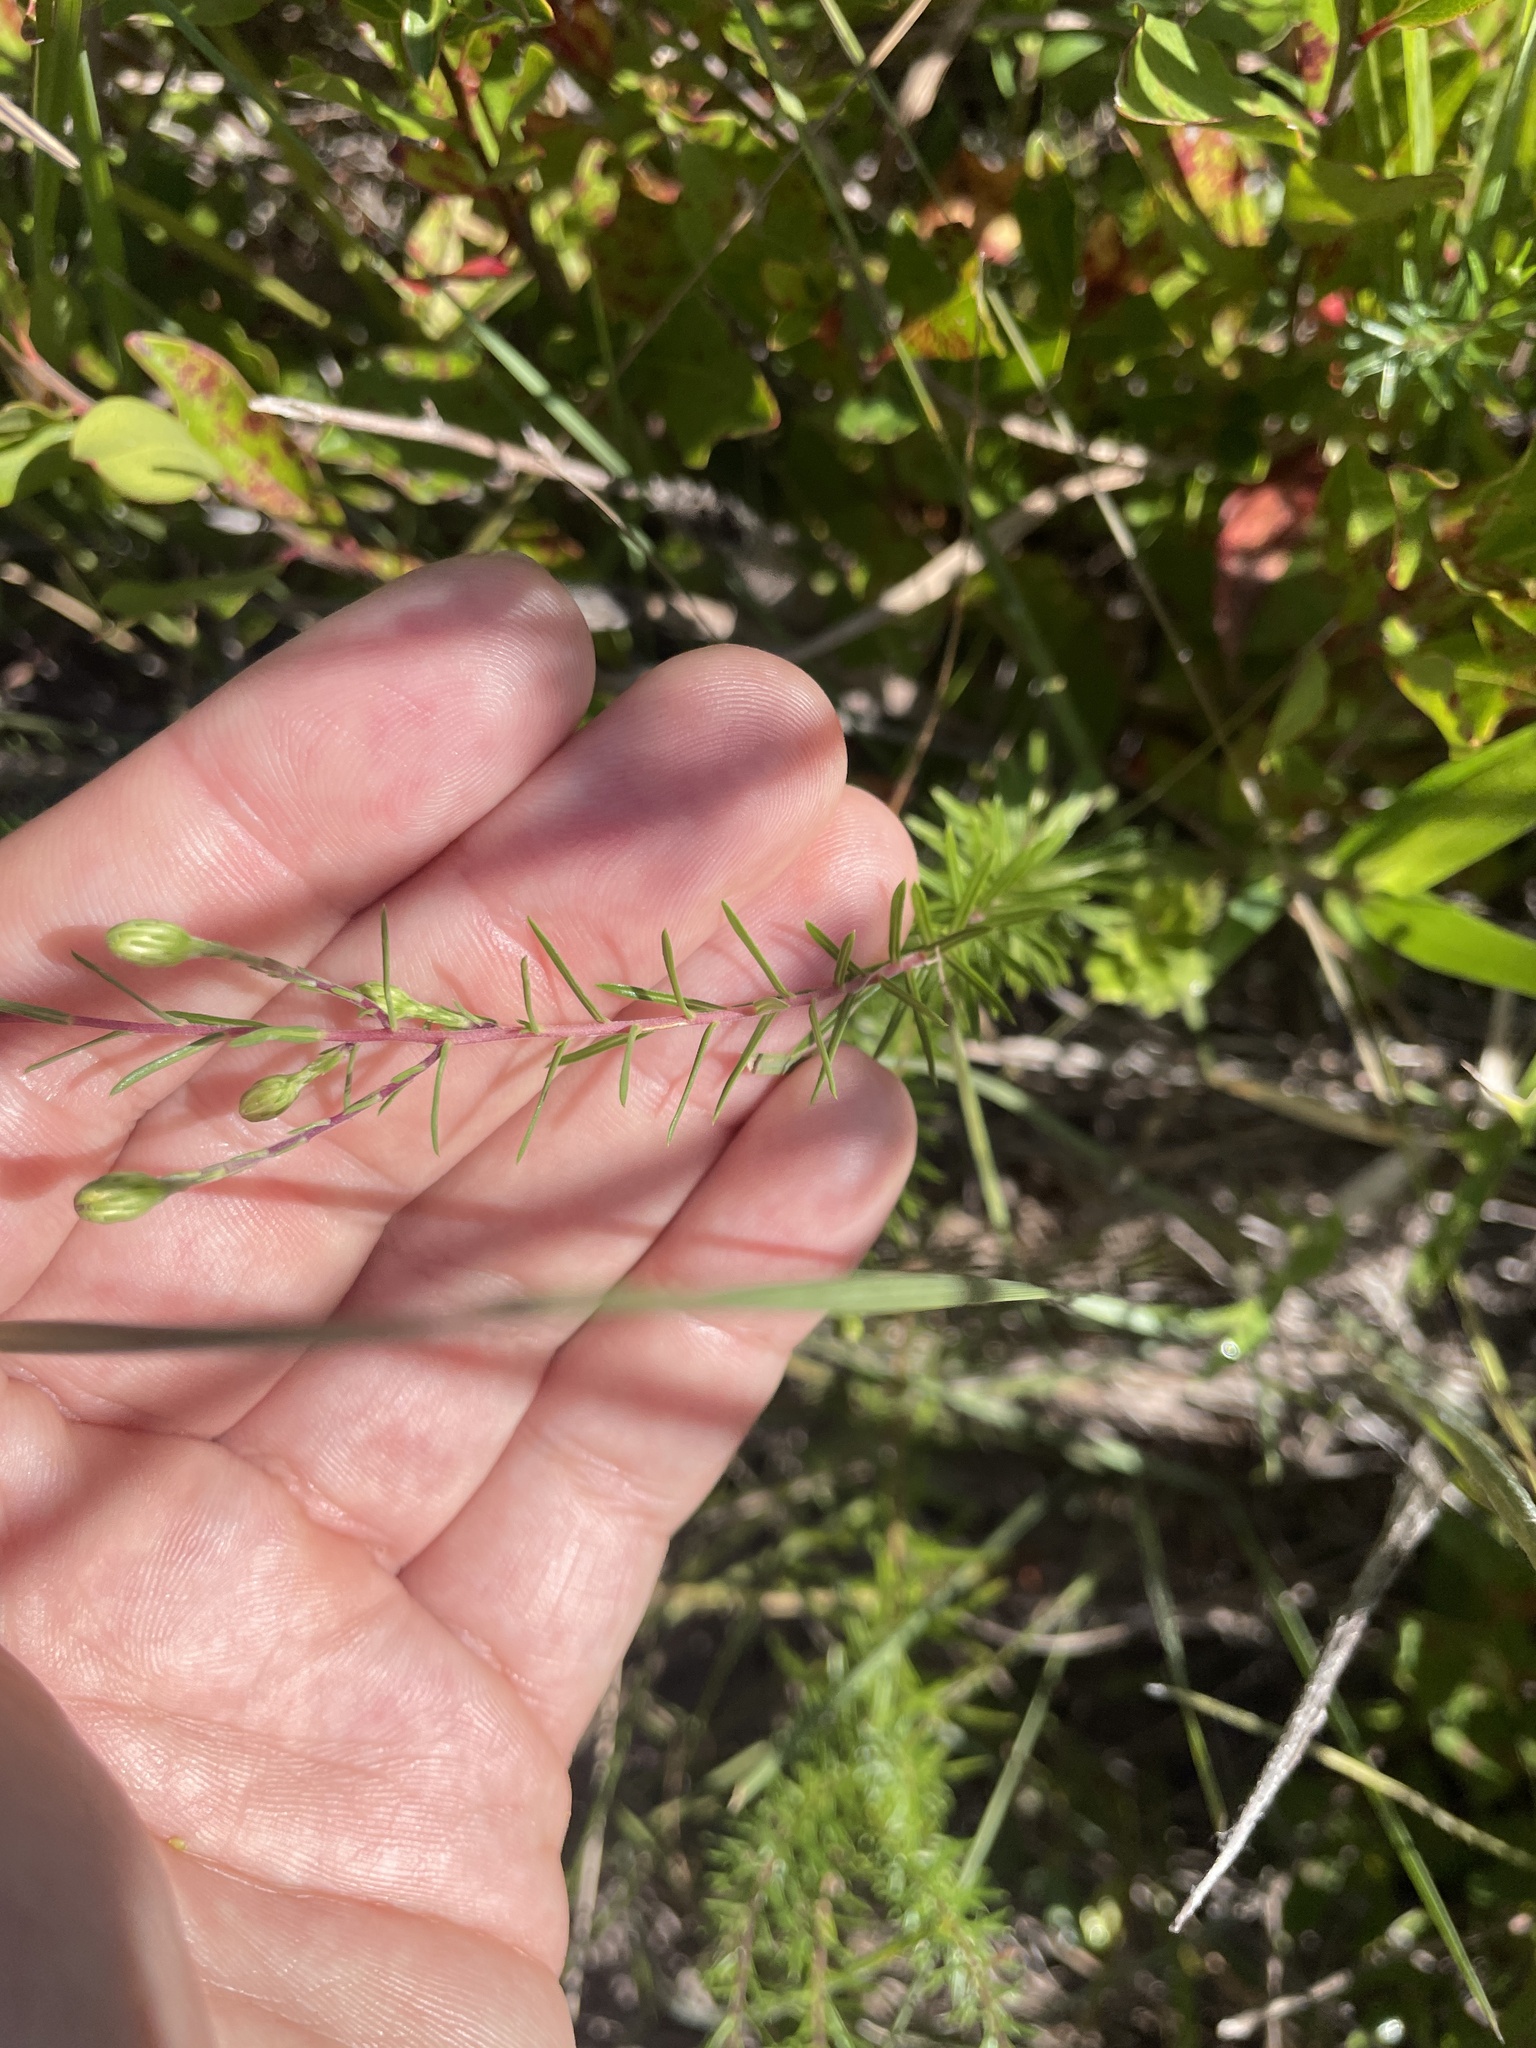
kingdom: Plantae
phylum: Tracheophyta
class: Magnoliopsida
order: Asterales
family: Asteraceae
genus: Ionactis
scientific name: Ionactis linariifolia
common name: Flax-leaf aster
